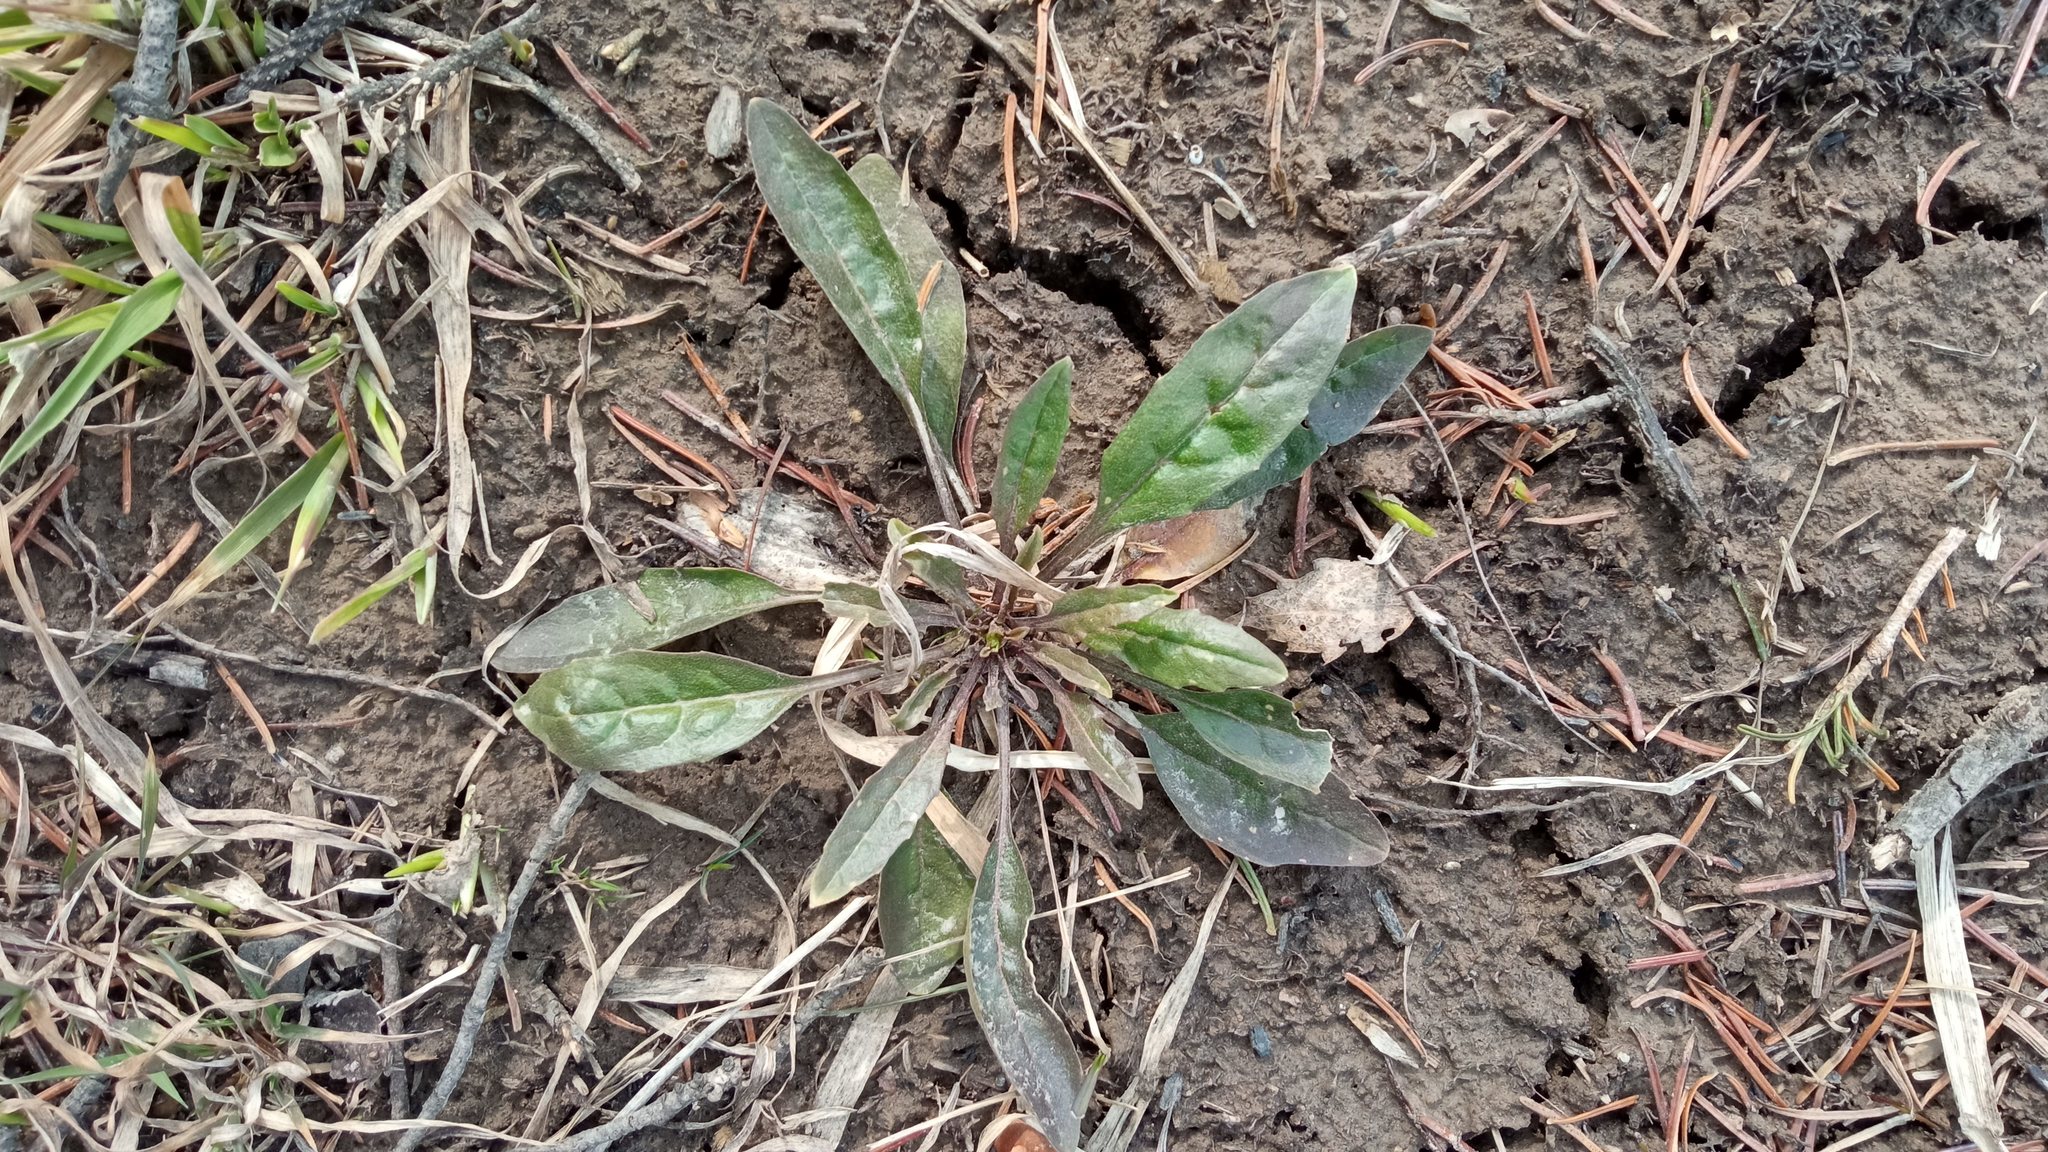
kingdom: Plantae
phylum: Tracheophyta
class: Magnoliopsida
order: Brassicales
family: Brassicaceae
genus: Erysimum
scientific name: Erysimum cheiranthoides
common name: Treacle mustard
